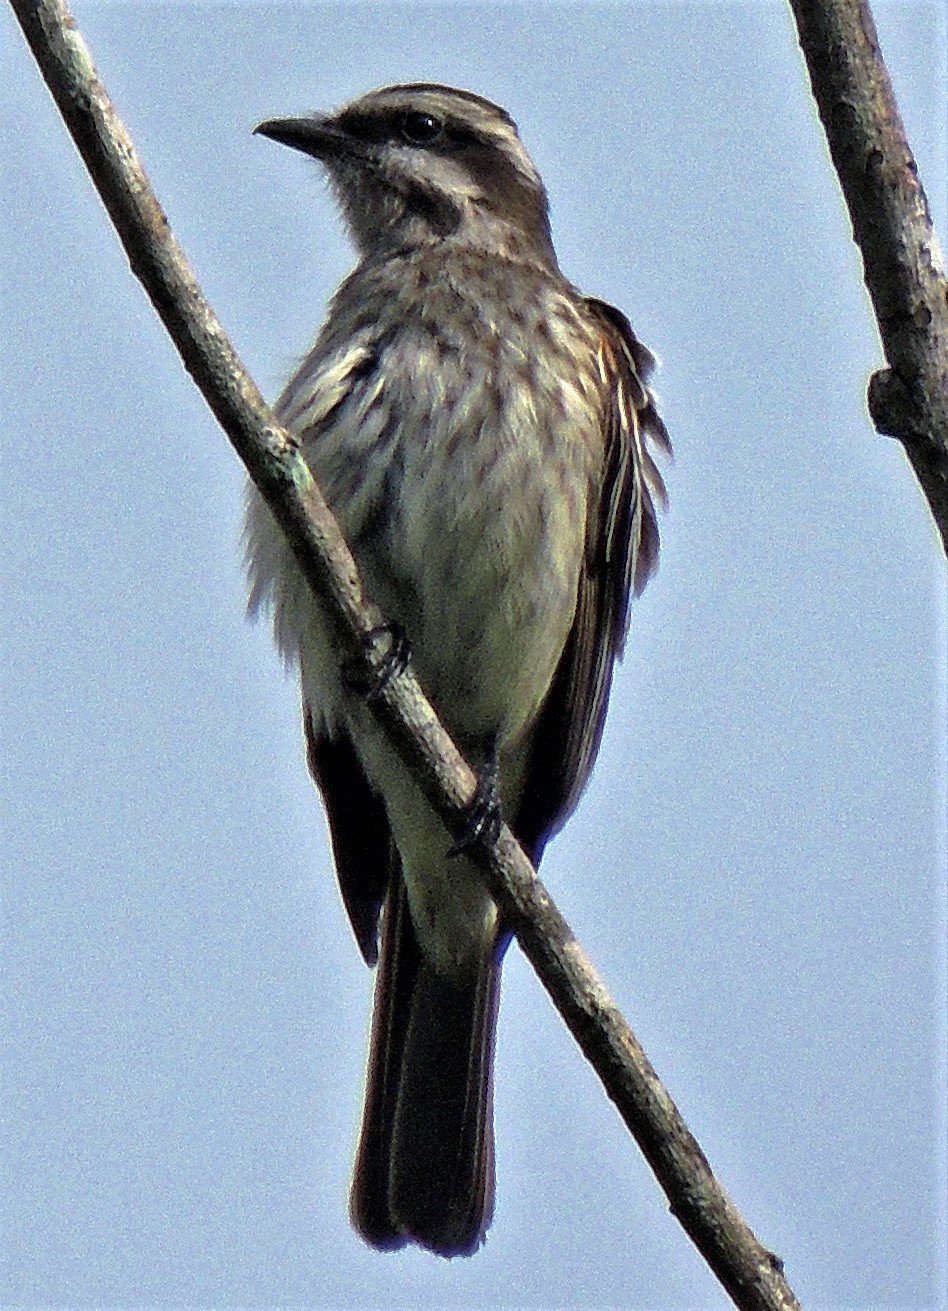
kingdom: Animalia
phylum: Chordata
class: Aves
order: Passeriformes
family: Tyrannidae
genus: Legatus
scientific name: Legatus leucophaius
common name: Piratic flycatcher
